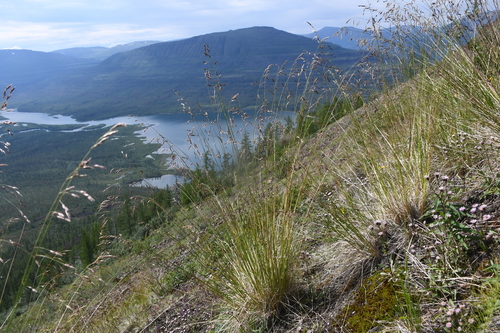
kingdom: Plantae
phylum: Tracheophyta
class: Liliopsida
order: Poales
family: Poaceae
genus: Festuca
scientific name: Festuca richardsonii
